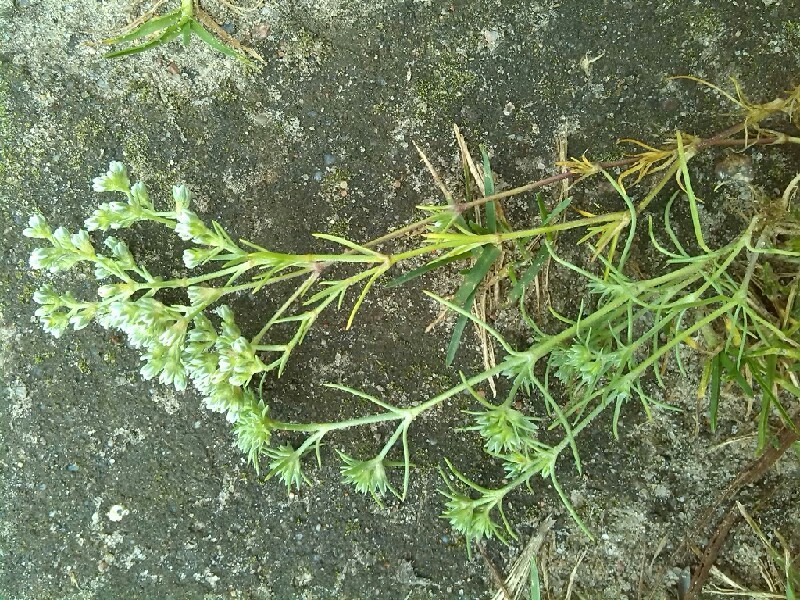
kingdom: Plantae
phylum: Tracheophyta
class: Magnoliopsida
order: Caryophyllales
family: Caryophyllaceae
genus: Scleranthus
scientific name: Scleranthus annuus
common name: Annual knawel
